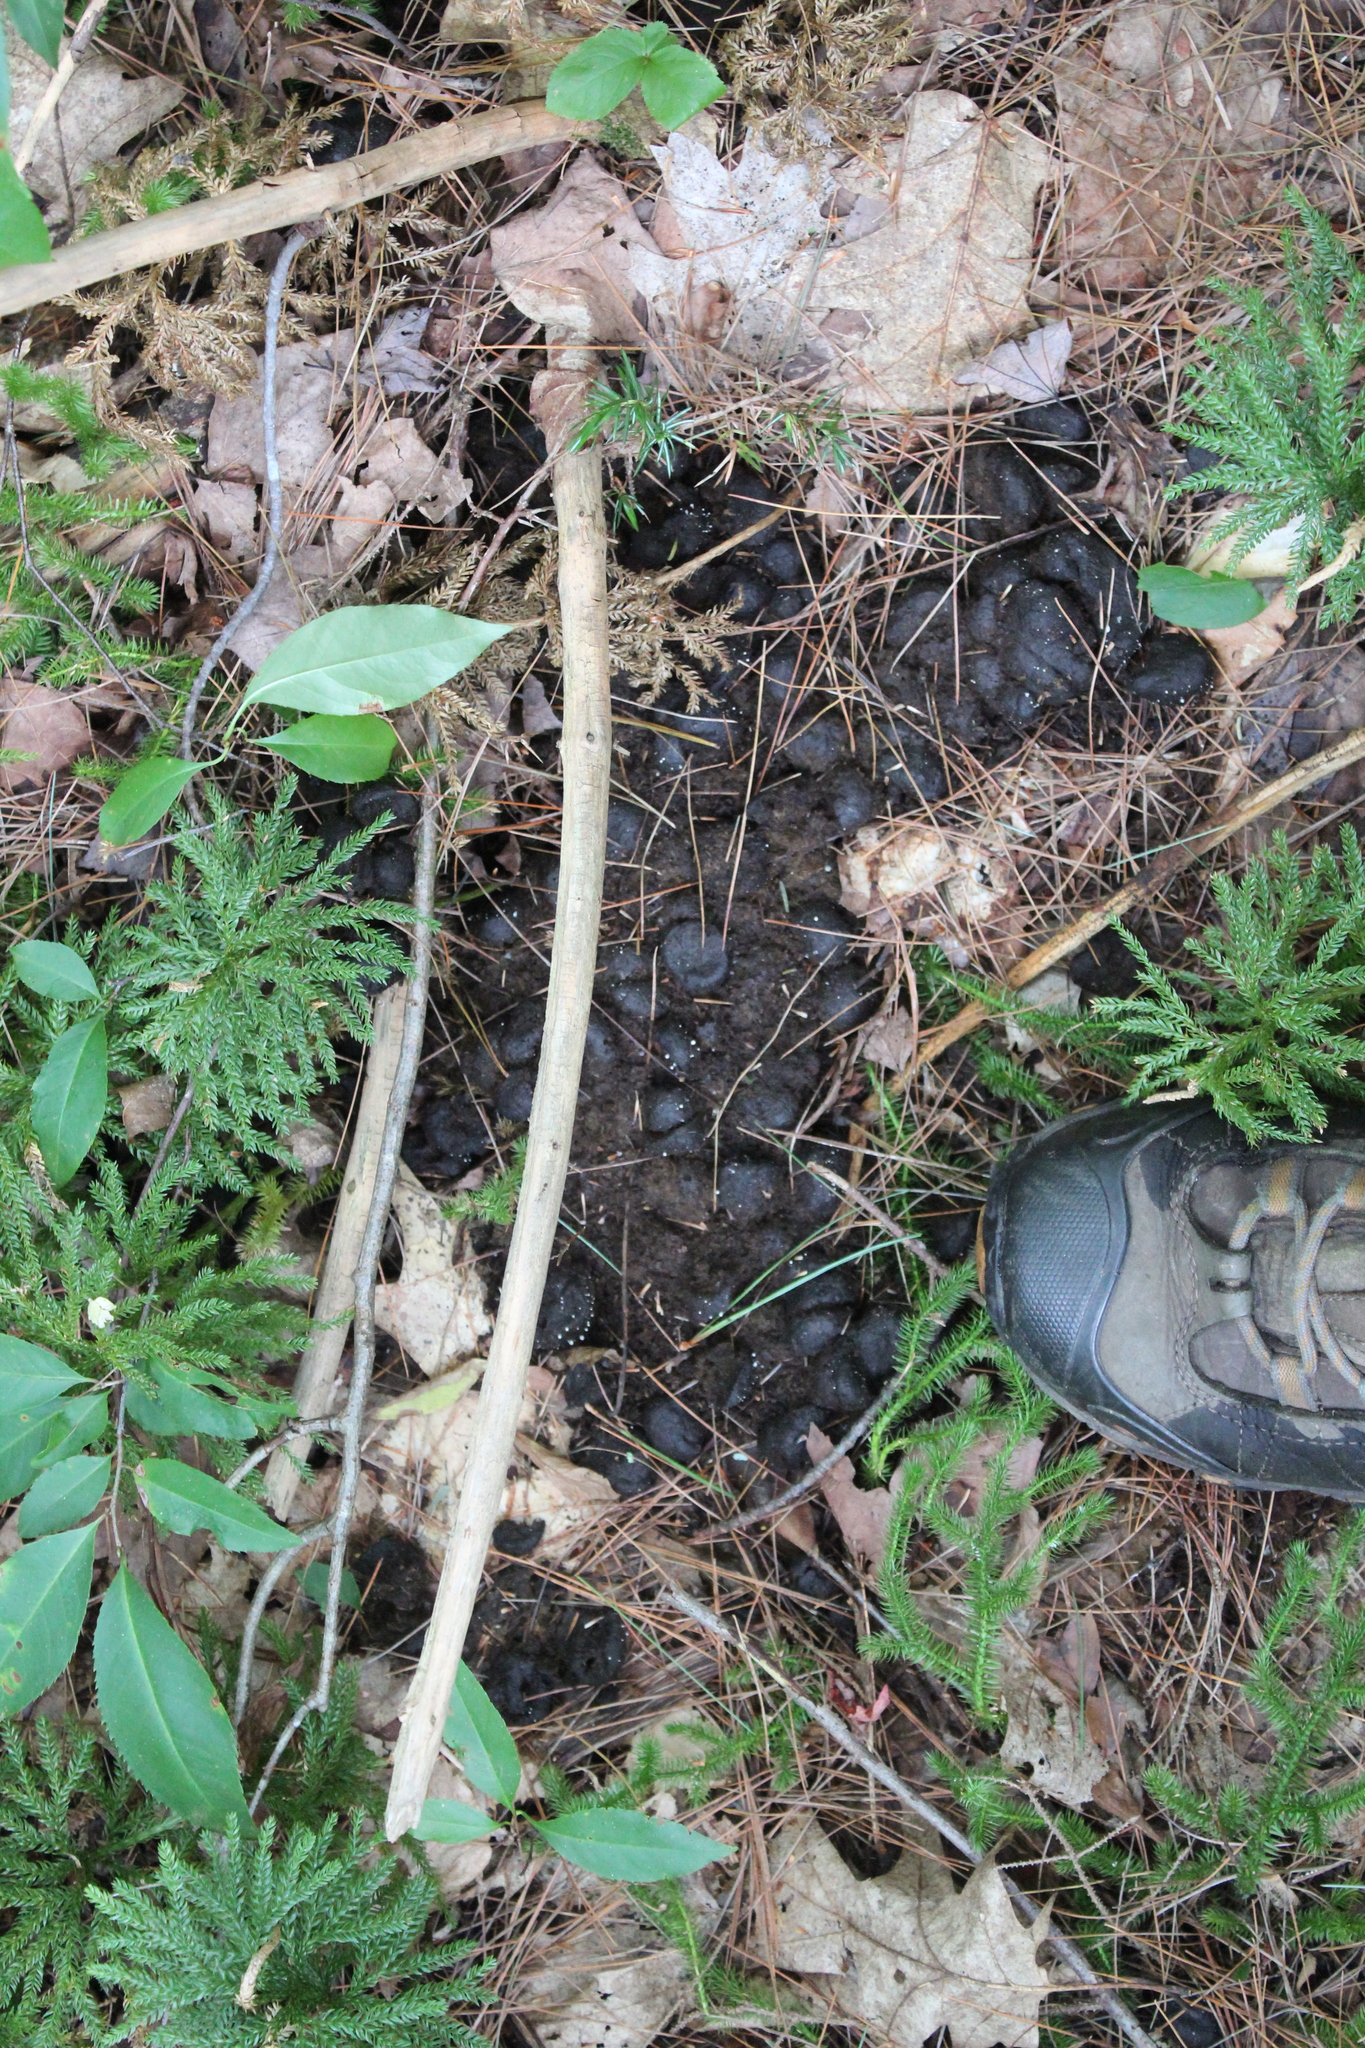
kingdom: Animalia
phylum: Chordata
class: Mammalia
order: Artiodactyla
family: Cervidae
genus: Alces
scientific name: Alces alces
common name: Moose
